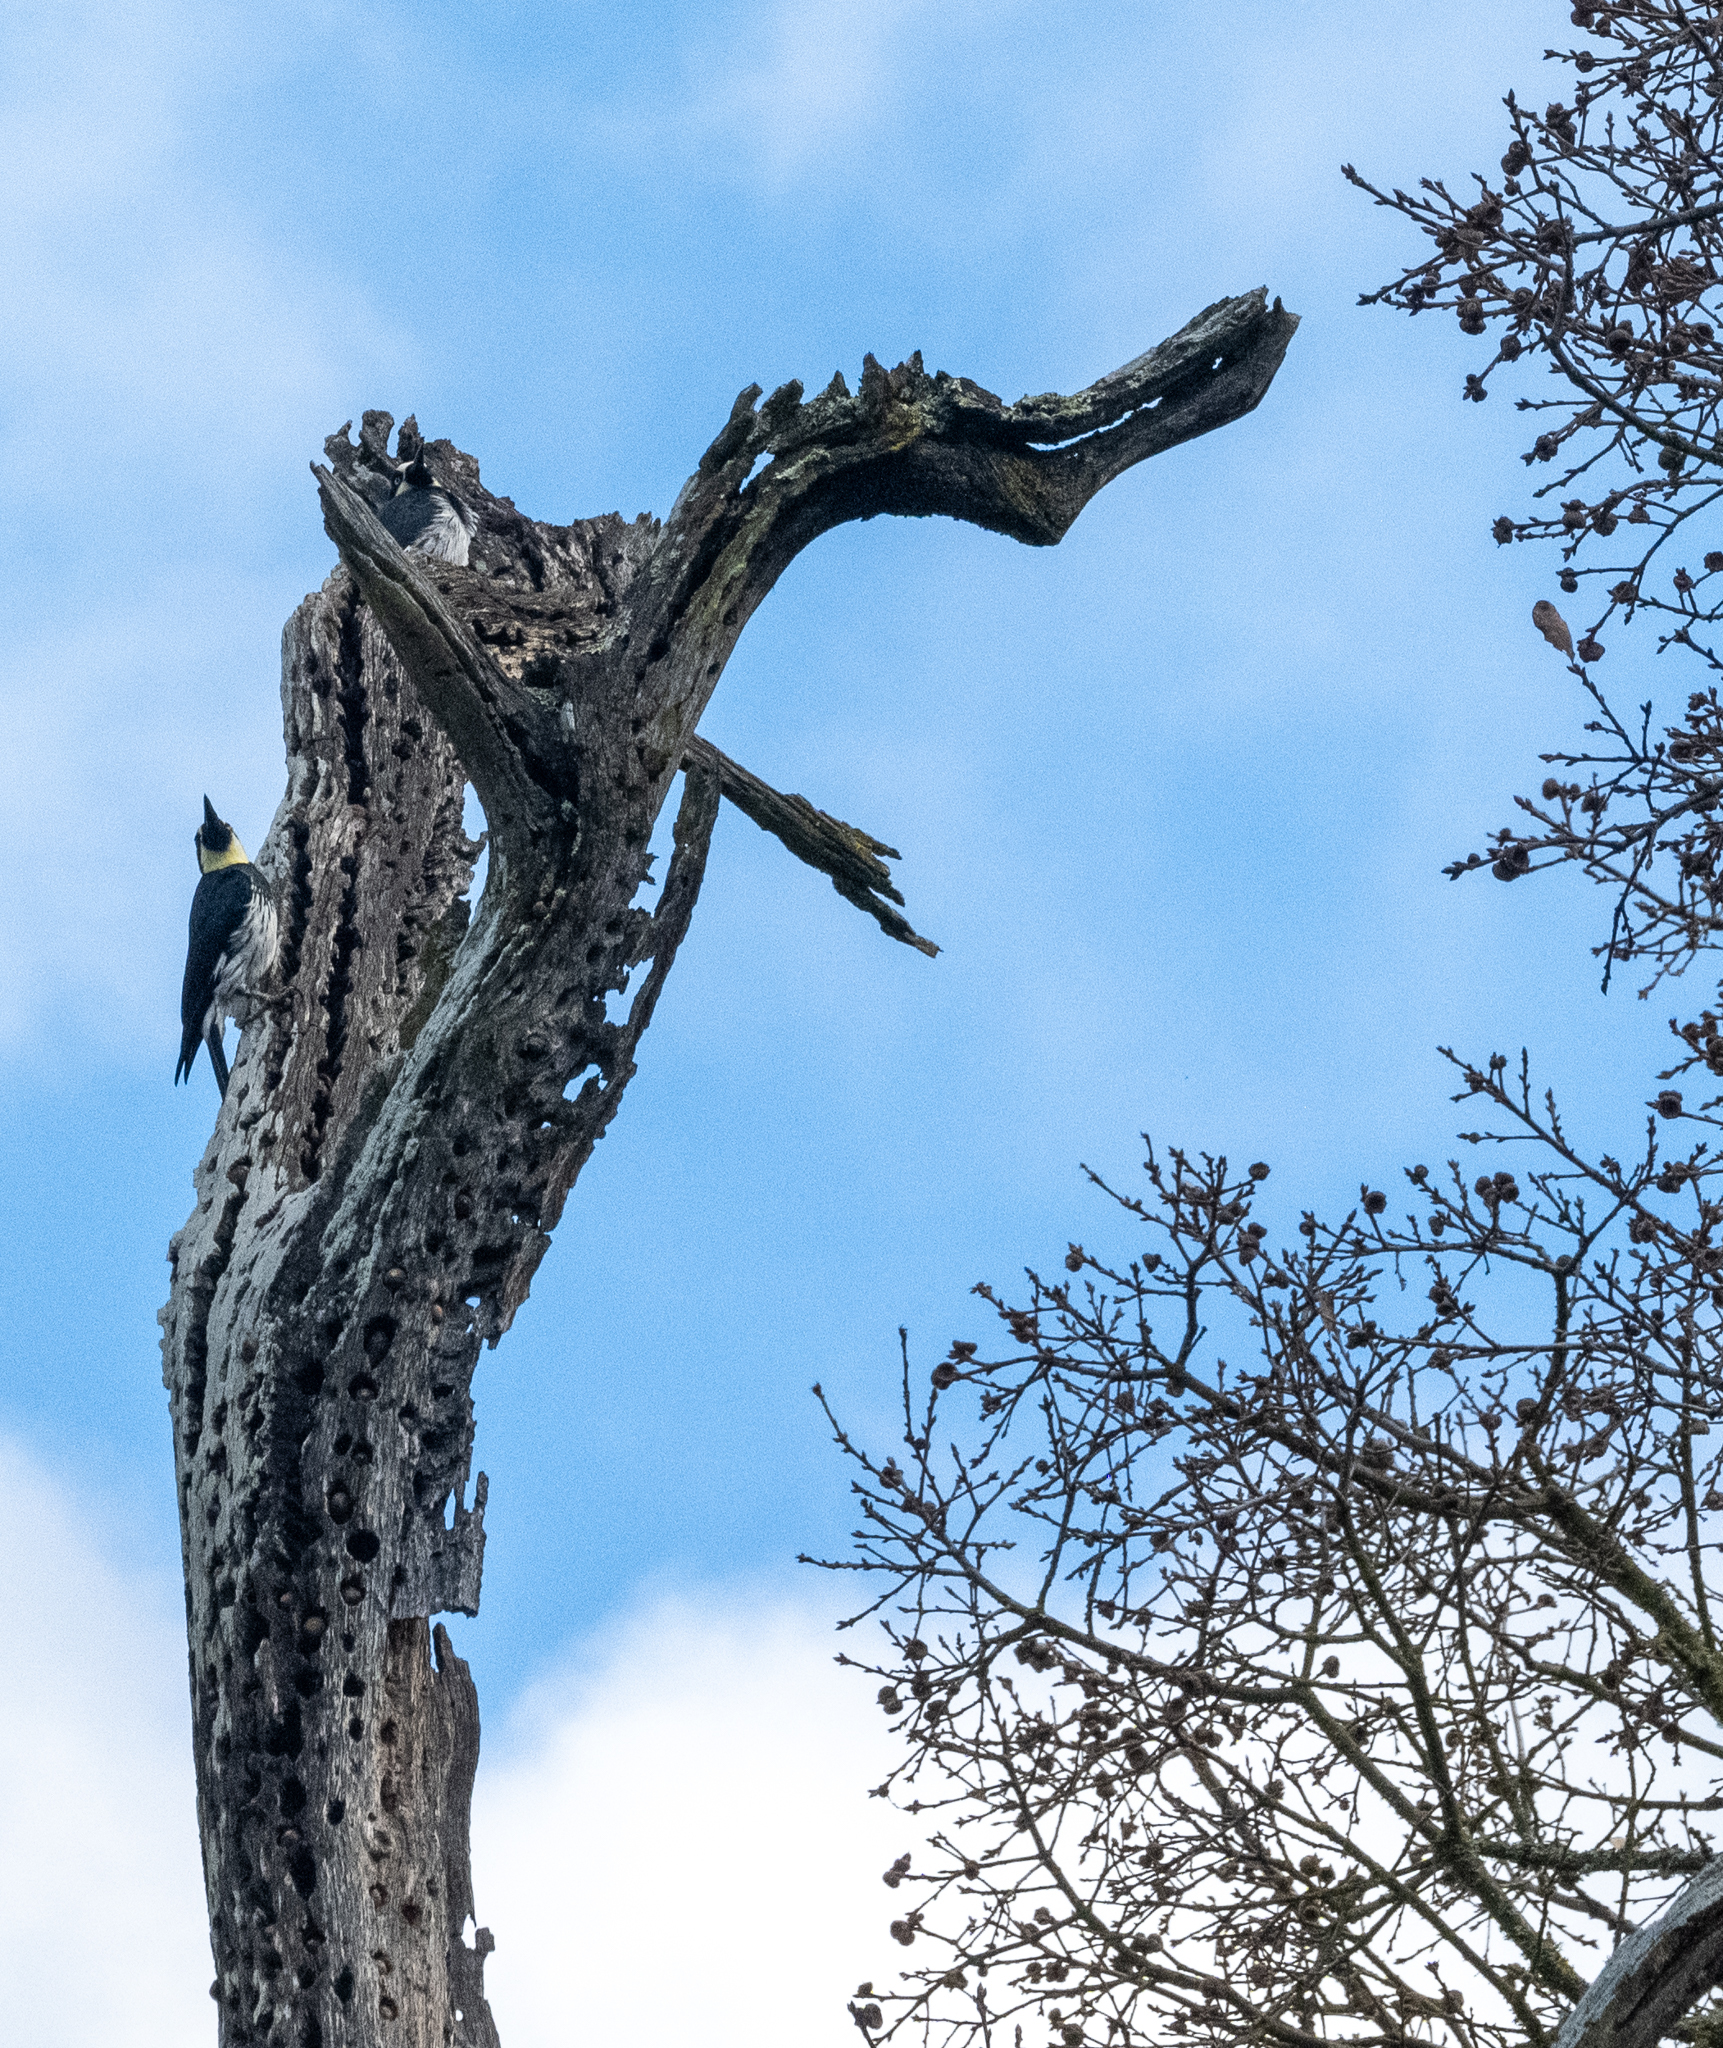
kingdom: Animalia
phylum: Chordata
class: Aves
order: Piciformes
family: Picidae
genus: Melanerpes
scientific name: Melanerpes formicivorus
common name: Acorn woodpecker
